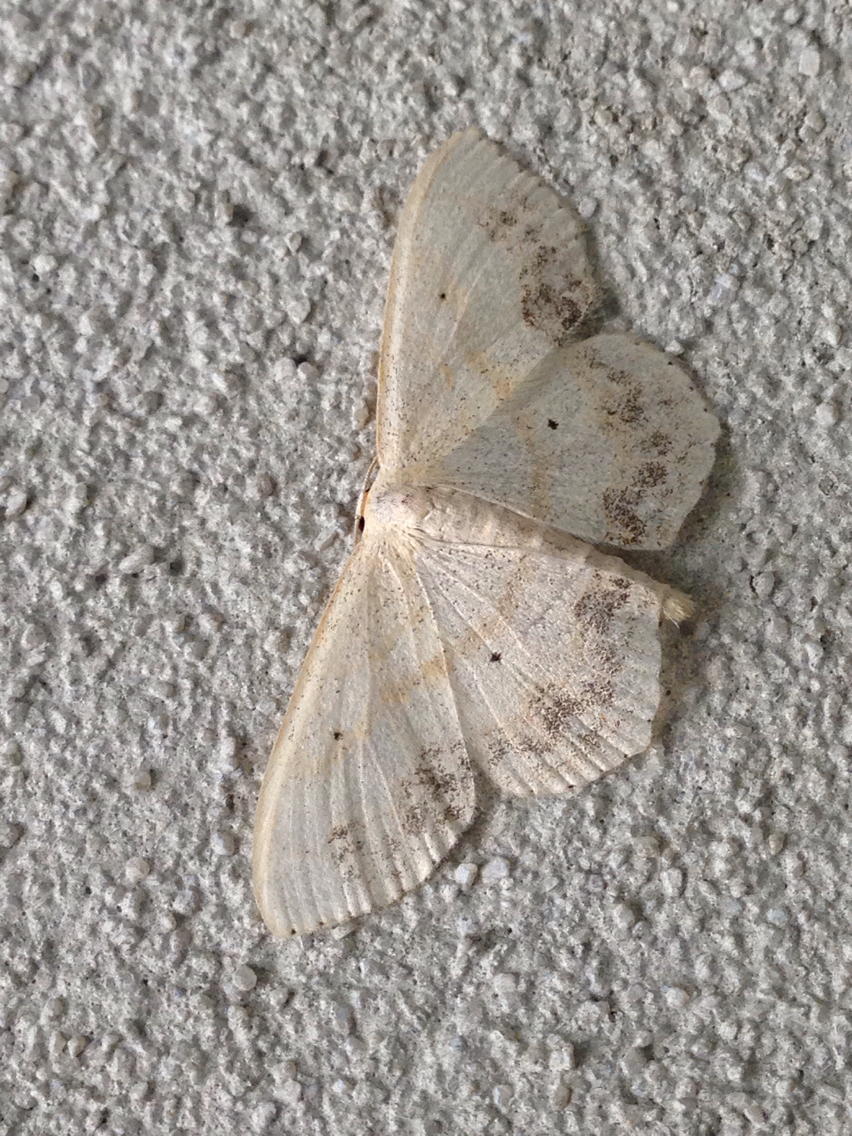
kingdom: Animalia
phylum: Arthropoda
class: Insecta
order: Lepidoptera
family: Geometridae
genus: Scopula
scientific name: Scopula limboundata
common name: Large lace border
